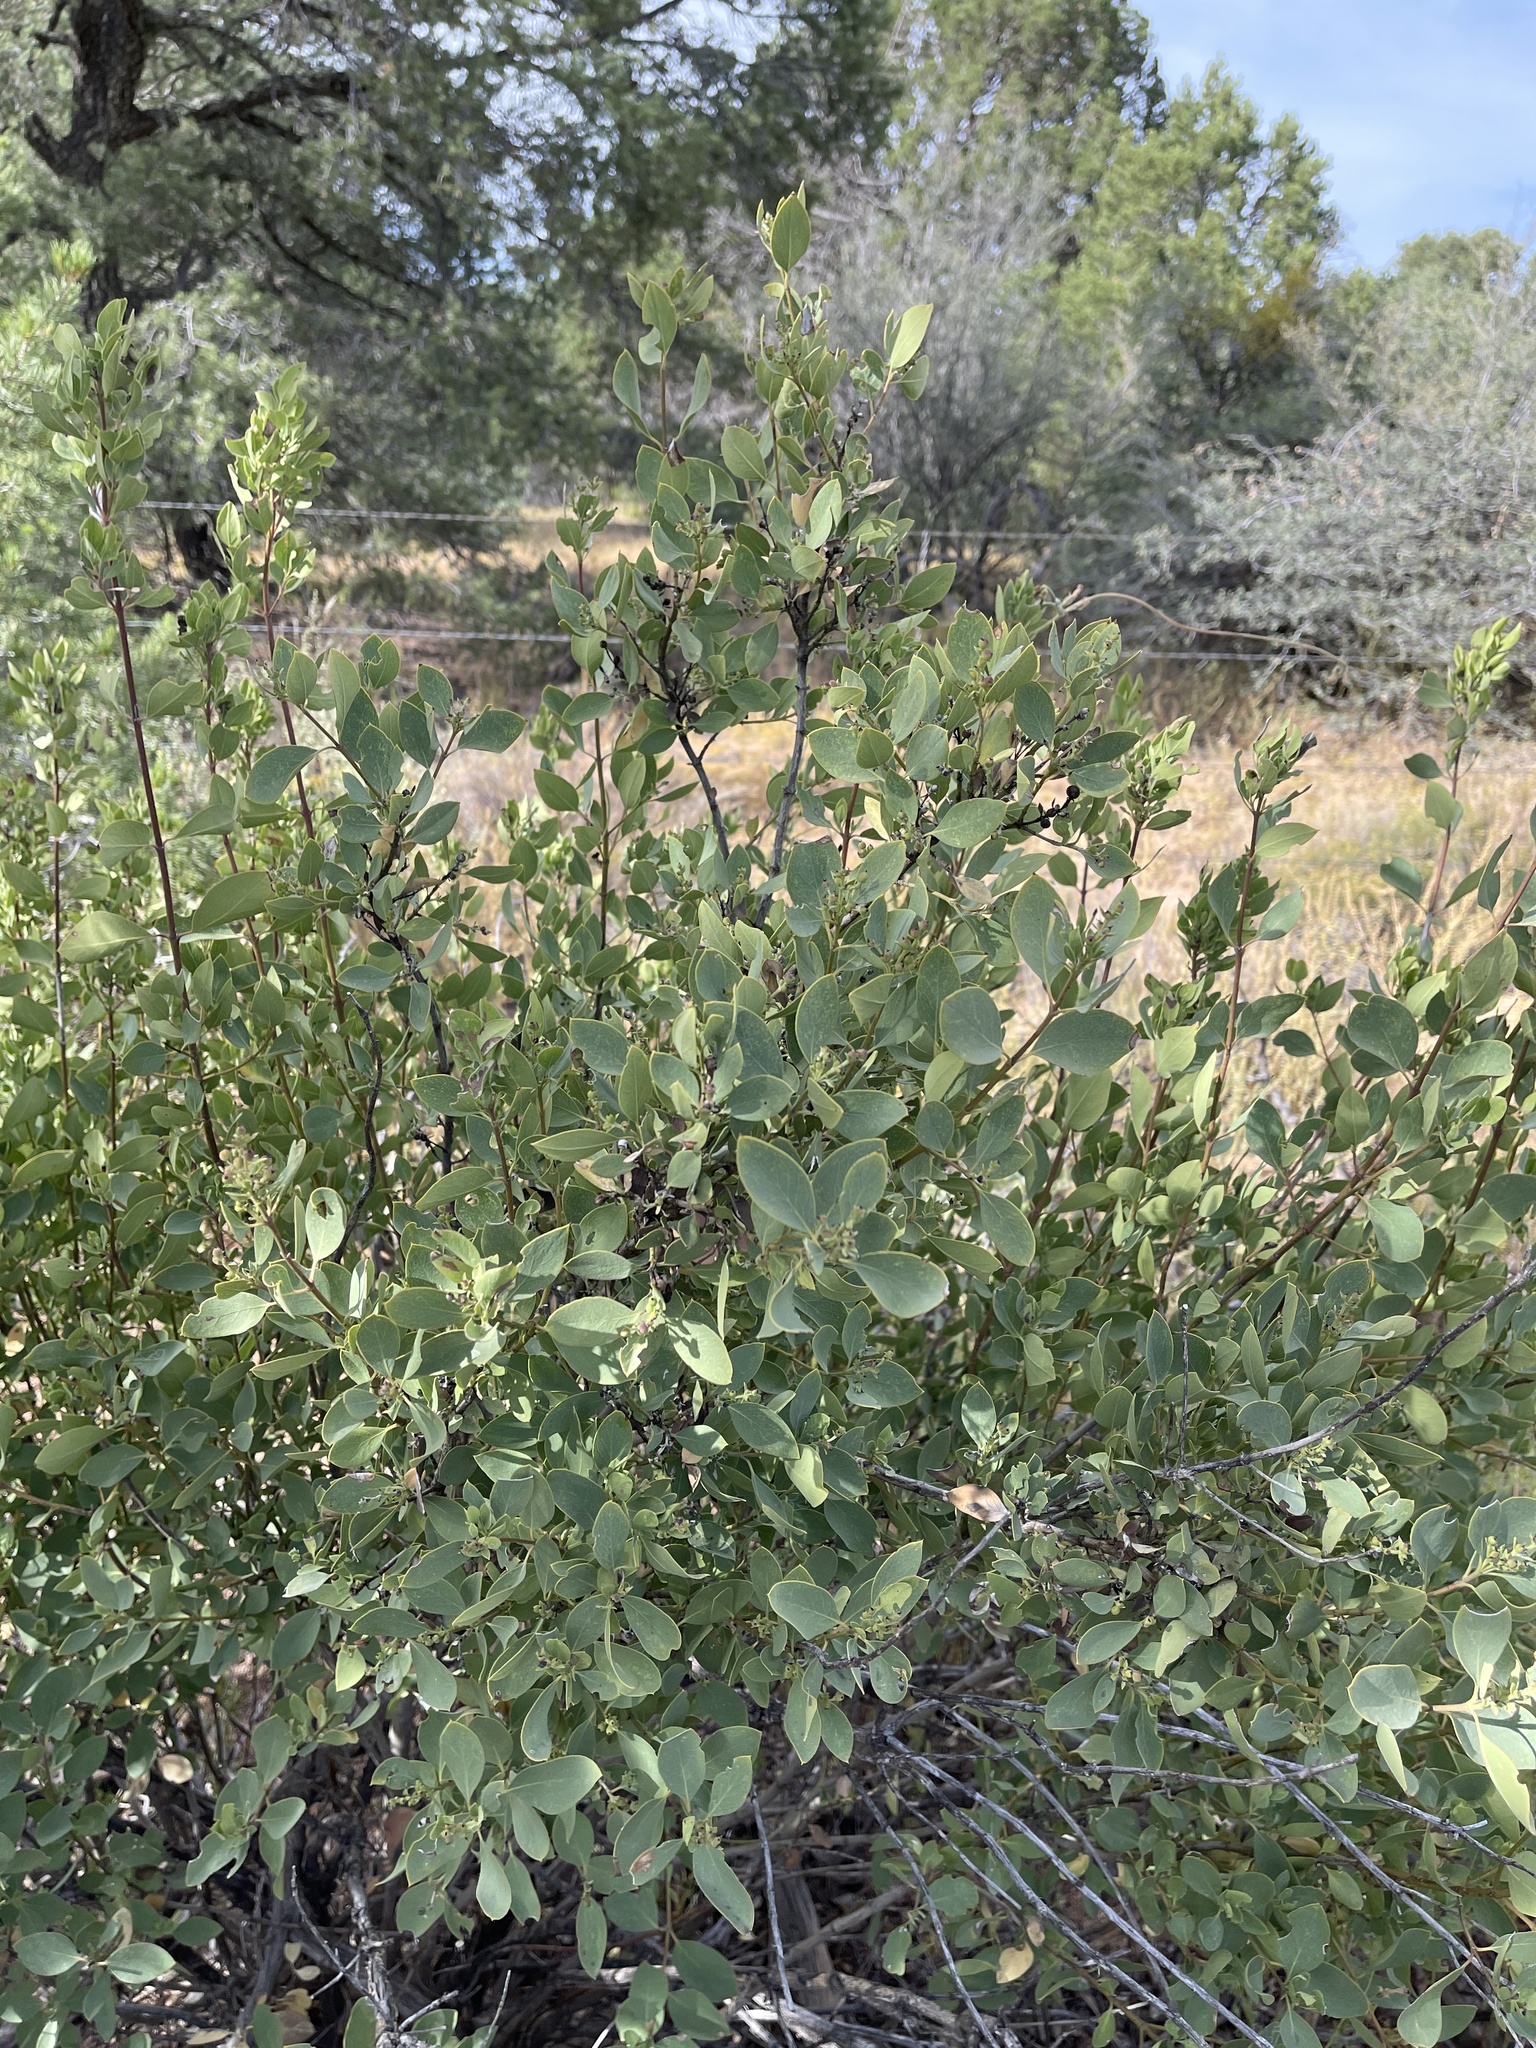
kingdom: Plantae
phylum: Tracheophyta
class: Magnoliopsida
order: Garryales
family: Garryaceae
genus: Garrya
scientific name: Garrya wrightii
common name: Wright's silktassel
